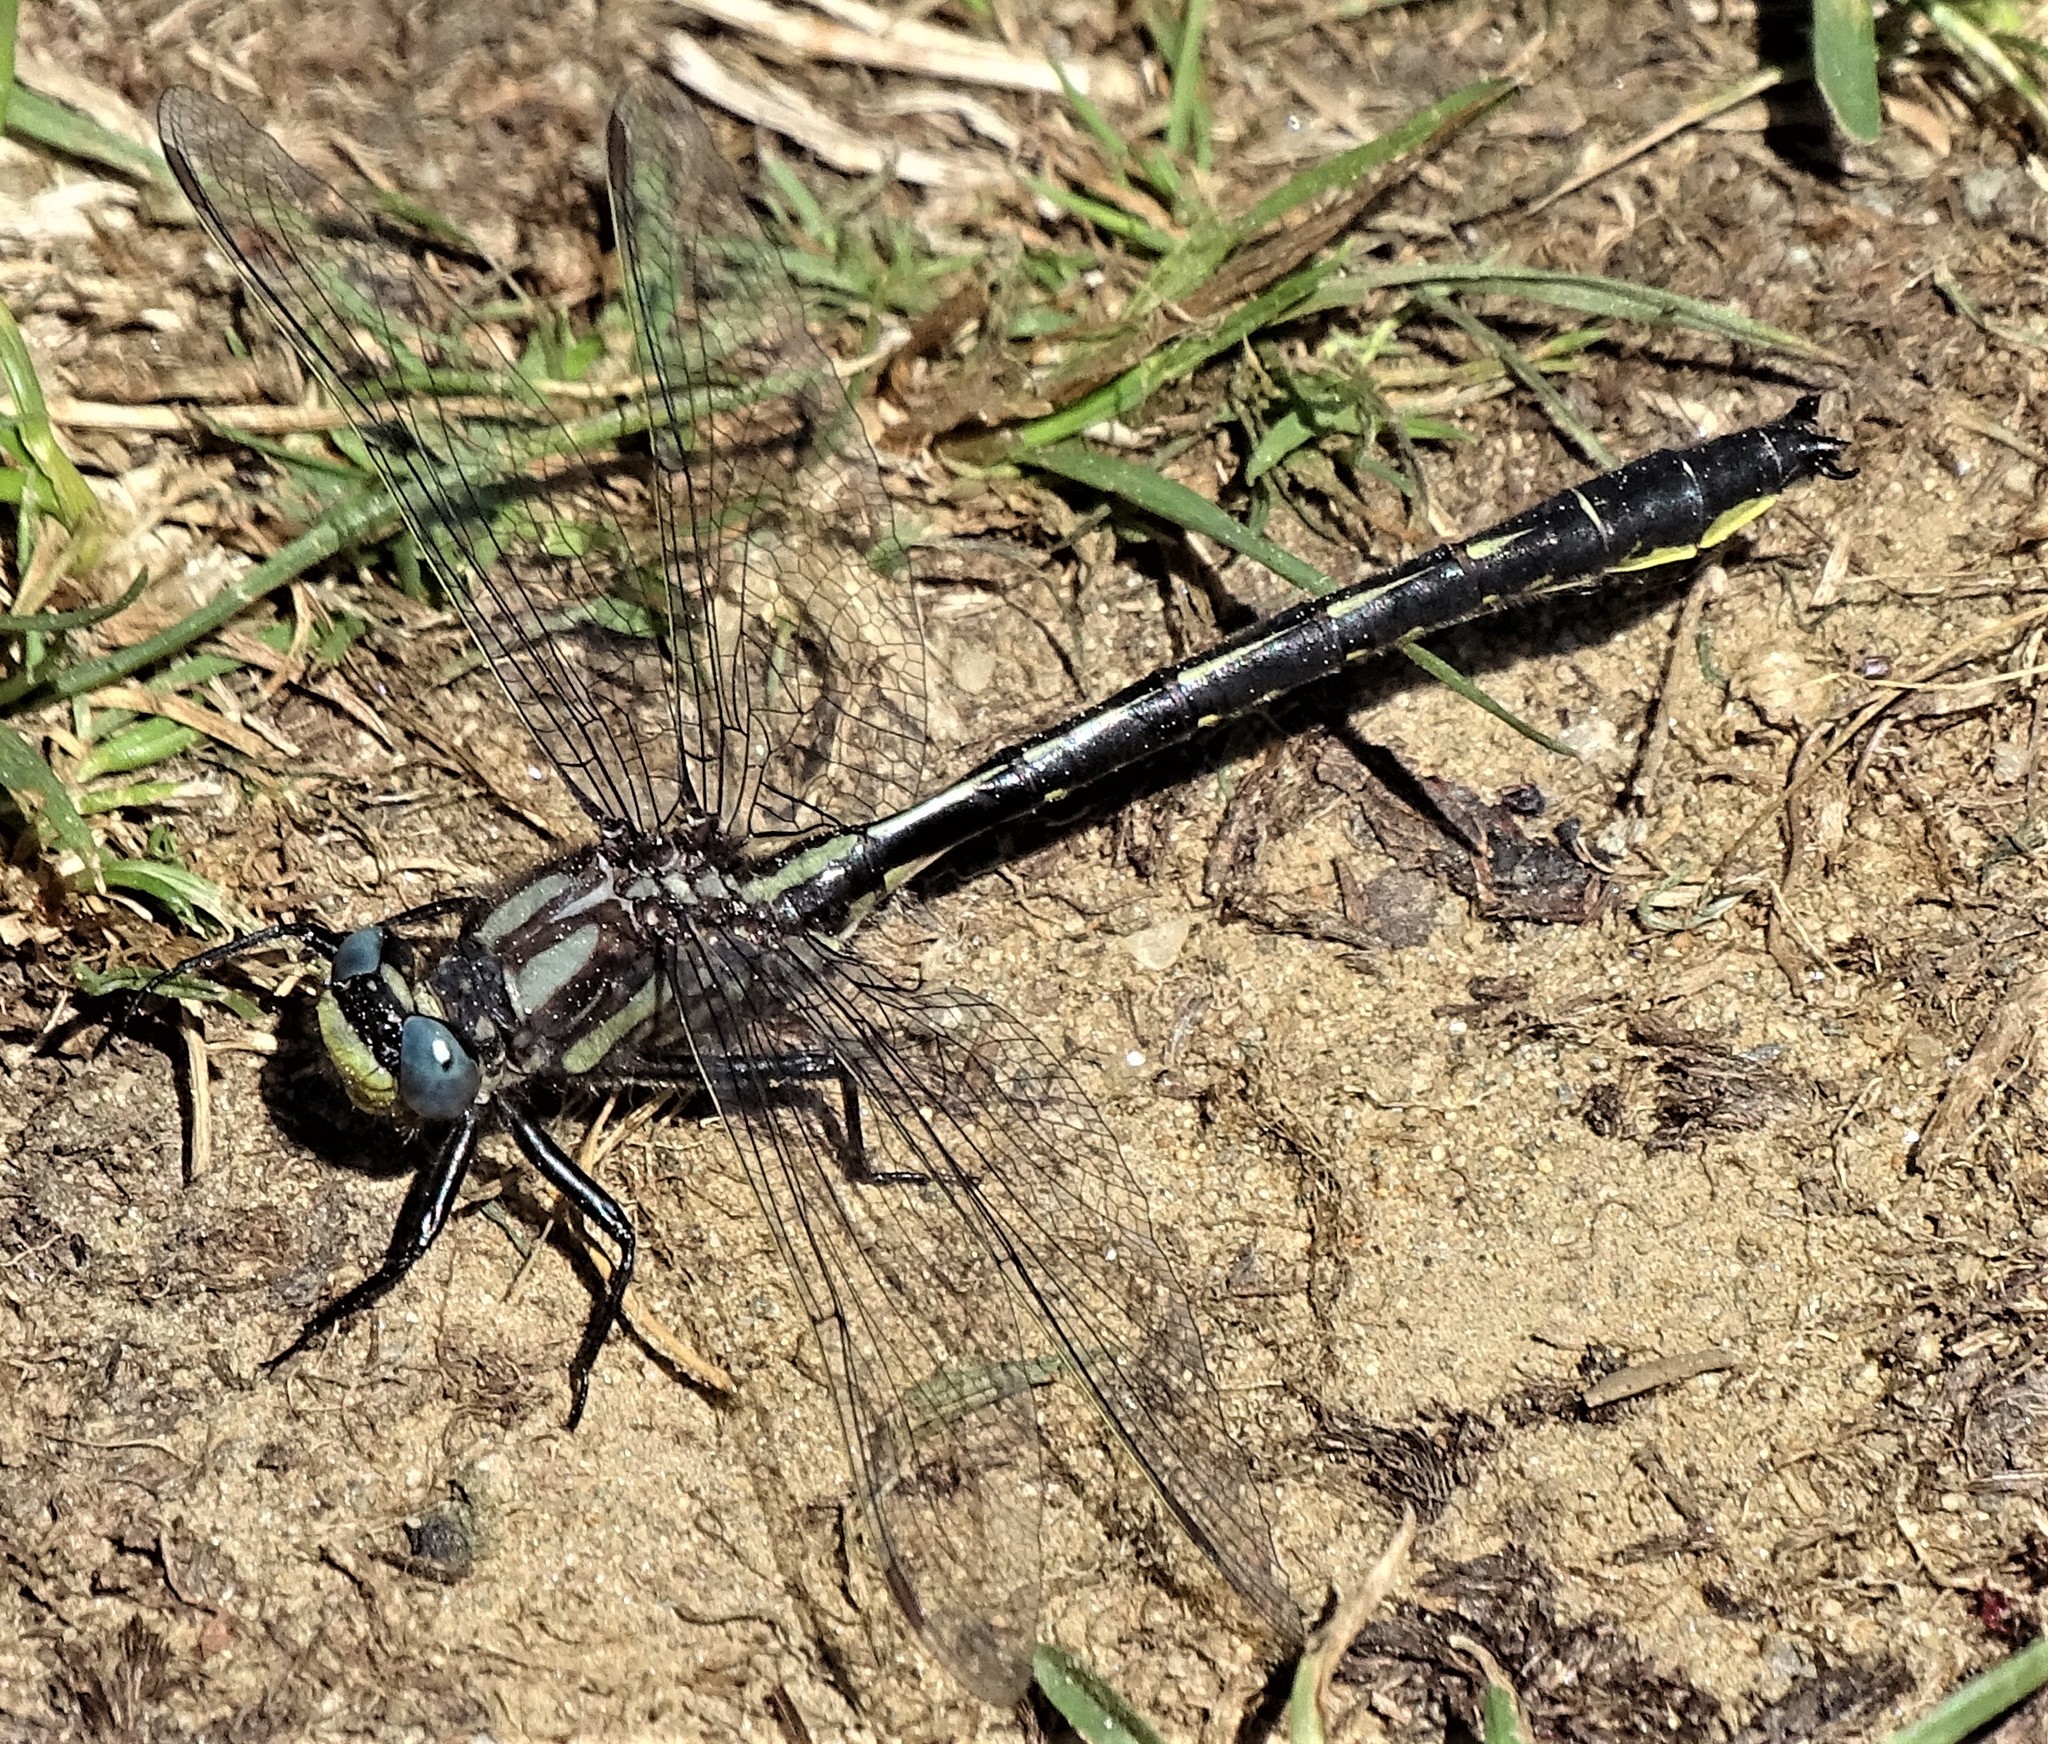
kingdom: Animalia
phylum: Arthropoda
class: Insecta
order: Odonata
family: Gomphidae
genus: Phanogomphus
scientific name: Phanogomphus borealis
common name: Beaverpond clubtail
